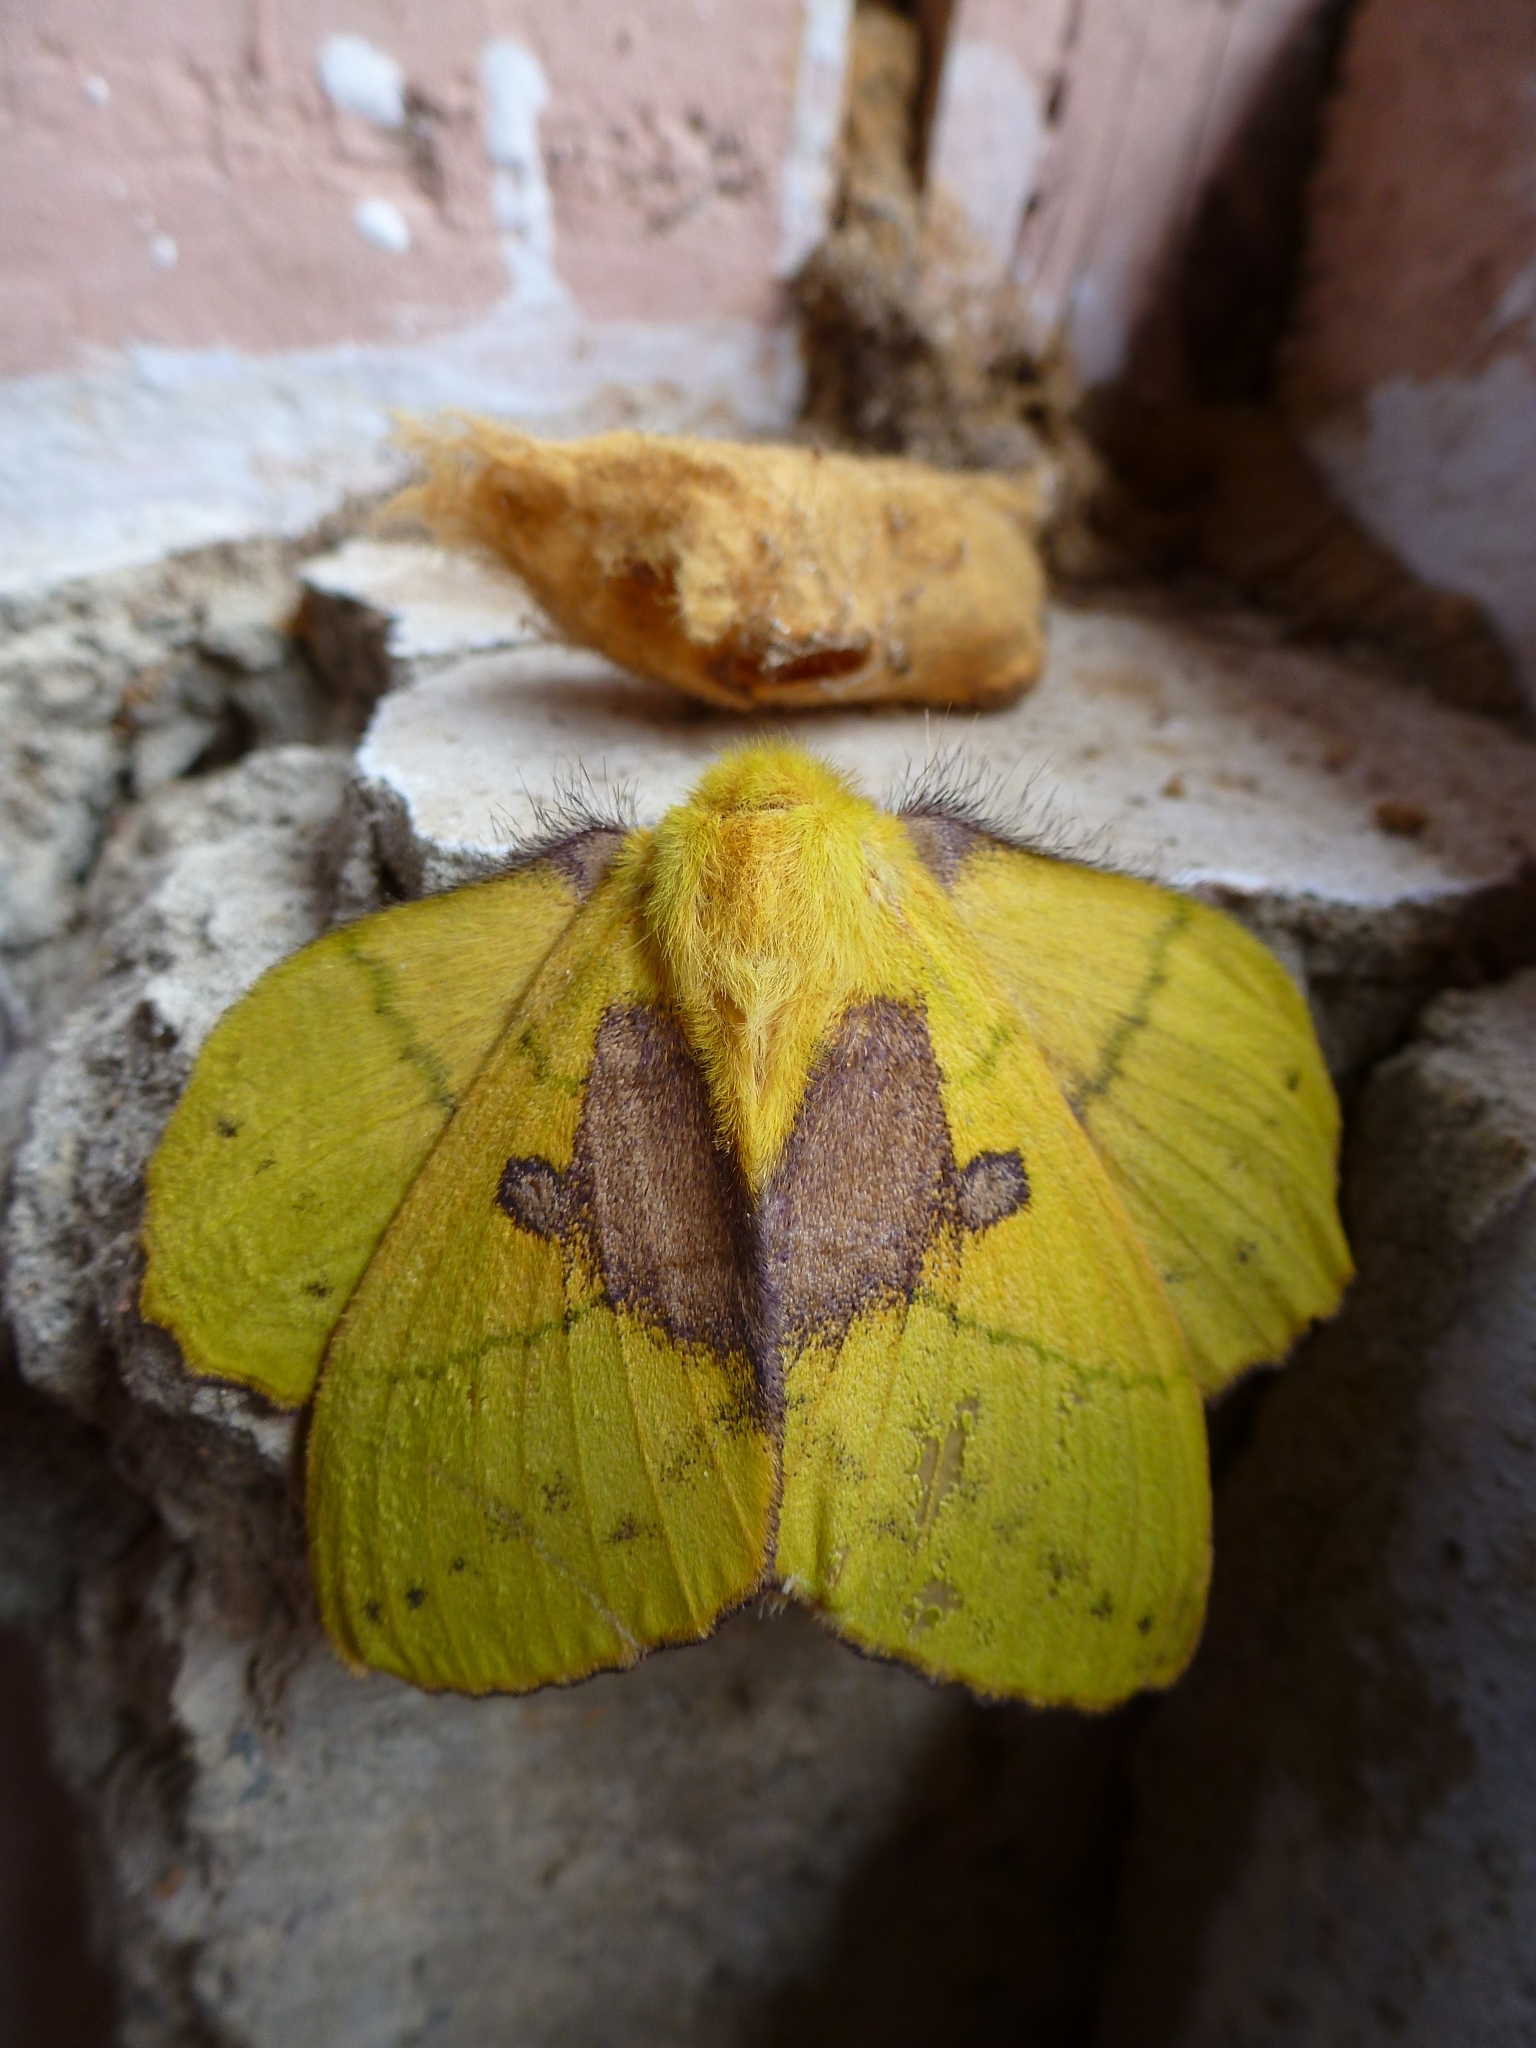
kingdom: Animalia
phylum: Arthropoda
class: Insecta
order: Lepidoptera
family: Lasiocampidae
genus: Trabala
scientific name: Trabala vishnou
